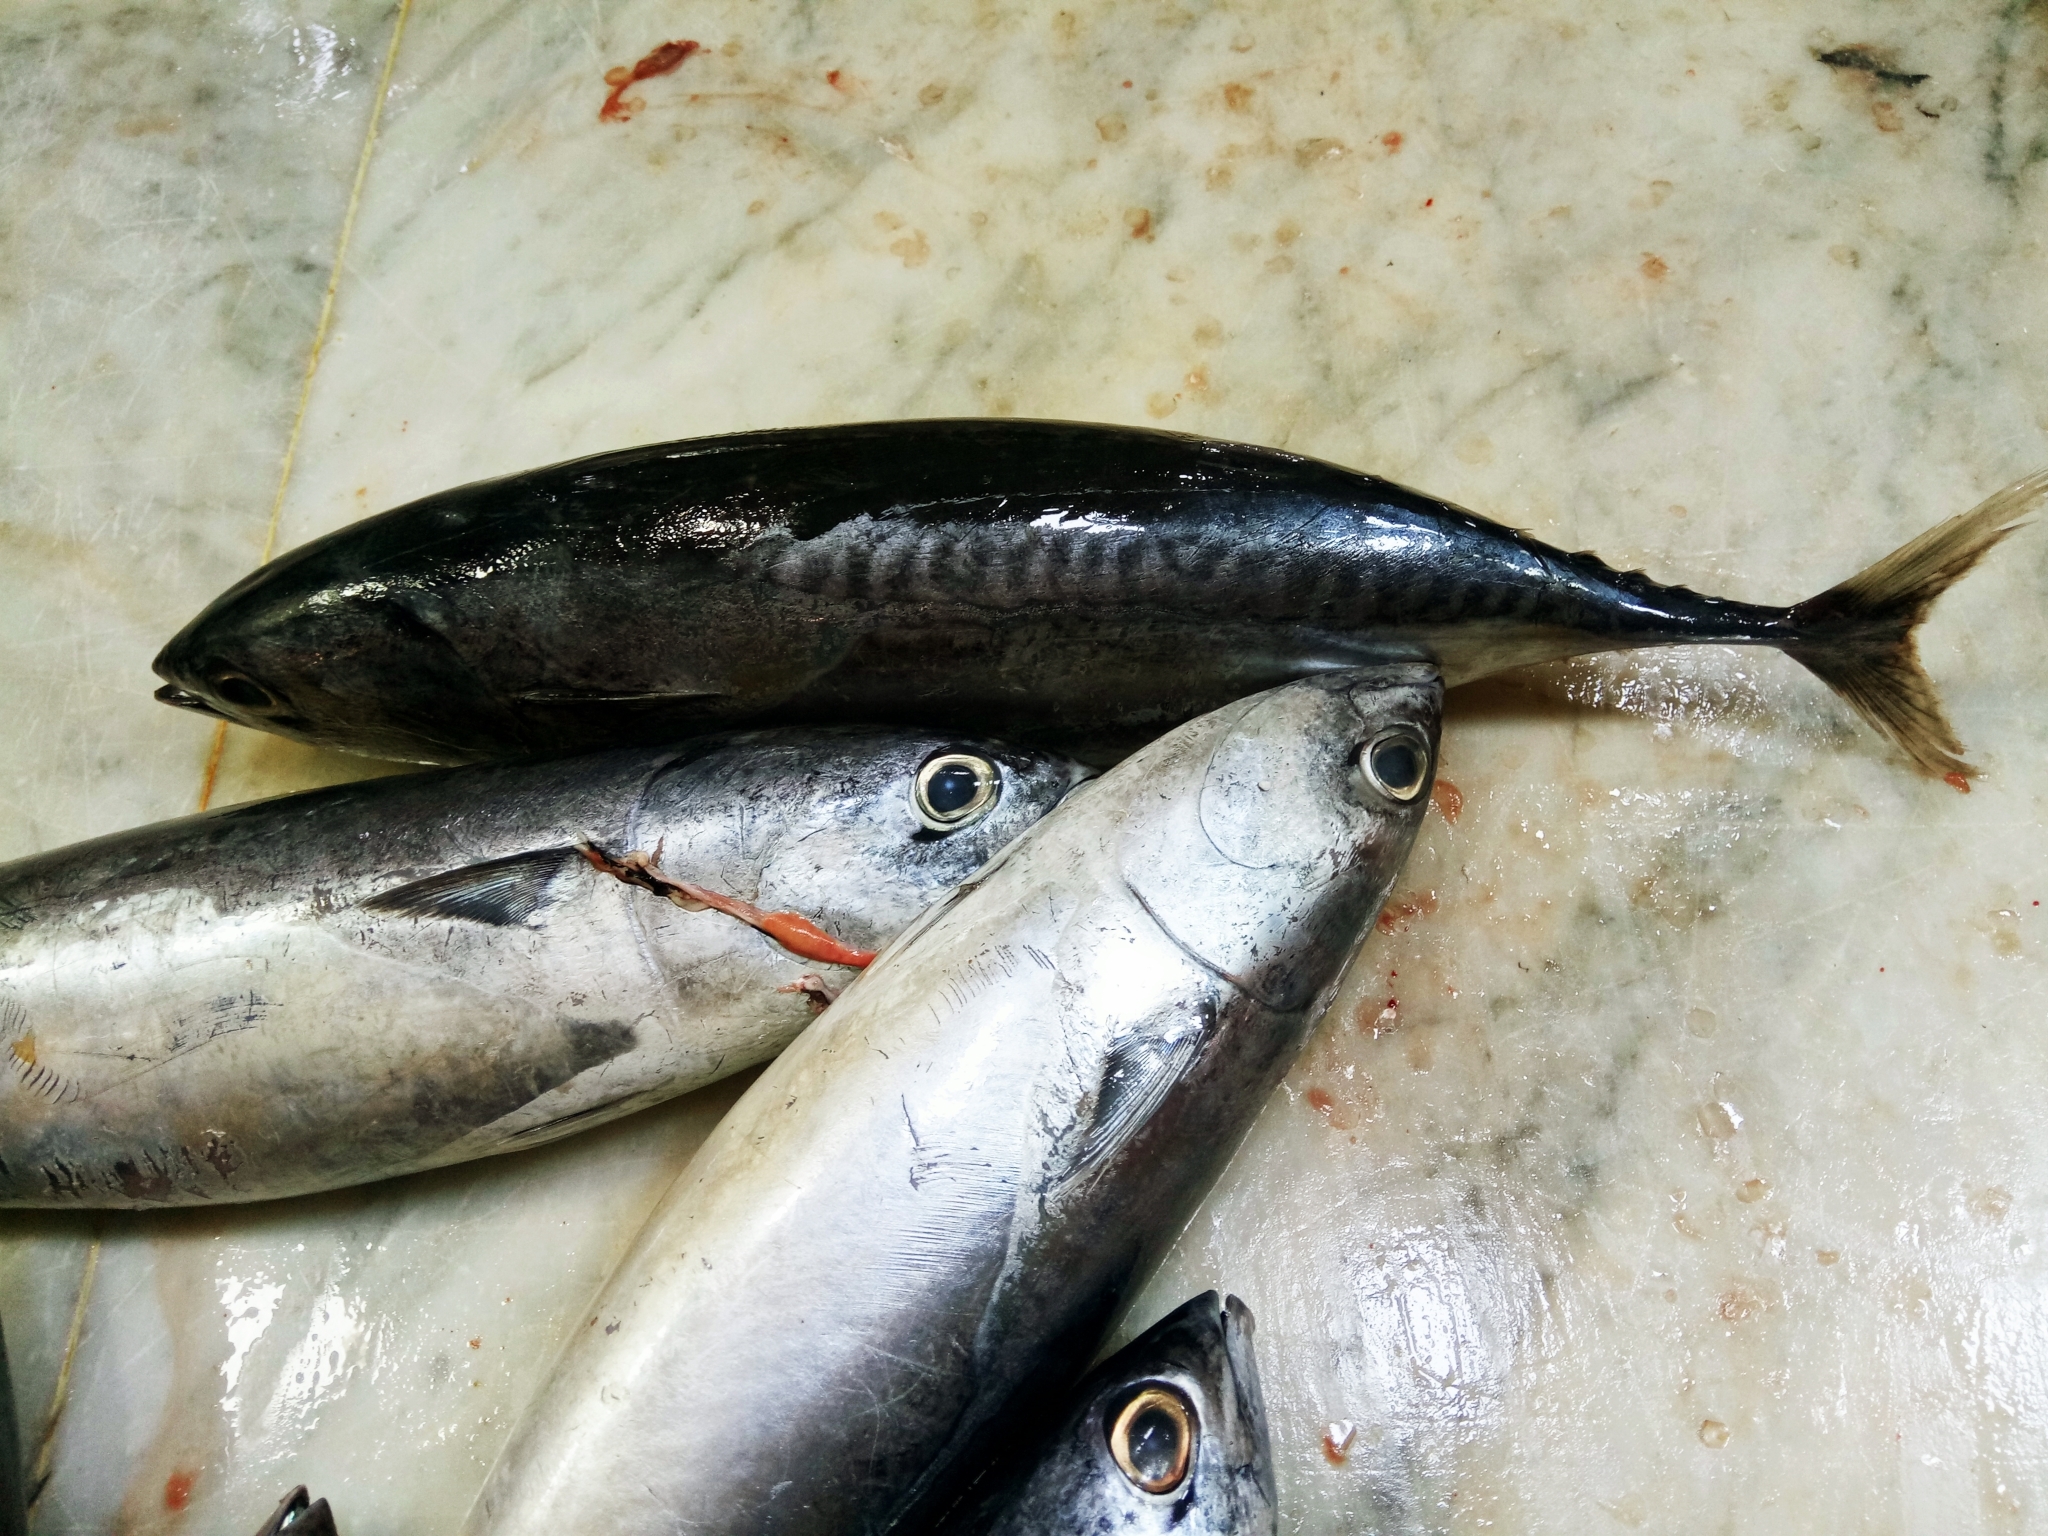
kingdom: Animalia
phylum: Chordata
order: Perciformes
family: Scombridae
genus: Auxis
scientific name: Auxis rochei
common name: Bullet tuna
